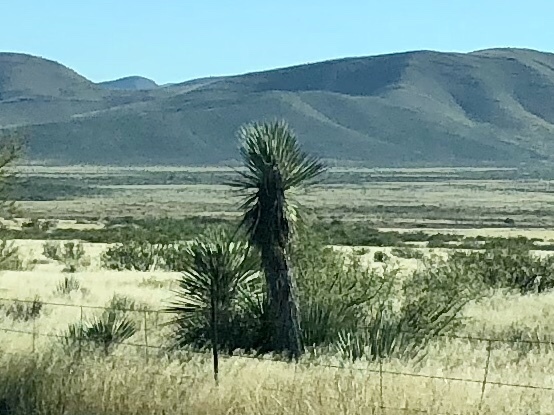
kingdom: Plantae
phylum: Tracheophyta
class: Liliopsida
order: Asparagales
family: Asparagaceae
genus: Yucca
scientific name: Yucca elata
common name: Palmella
